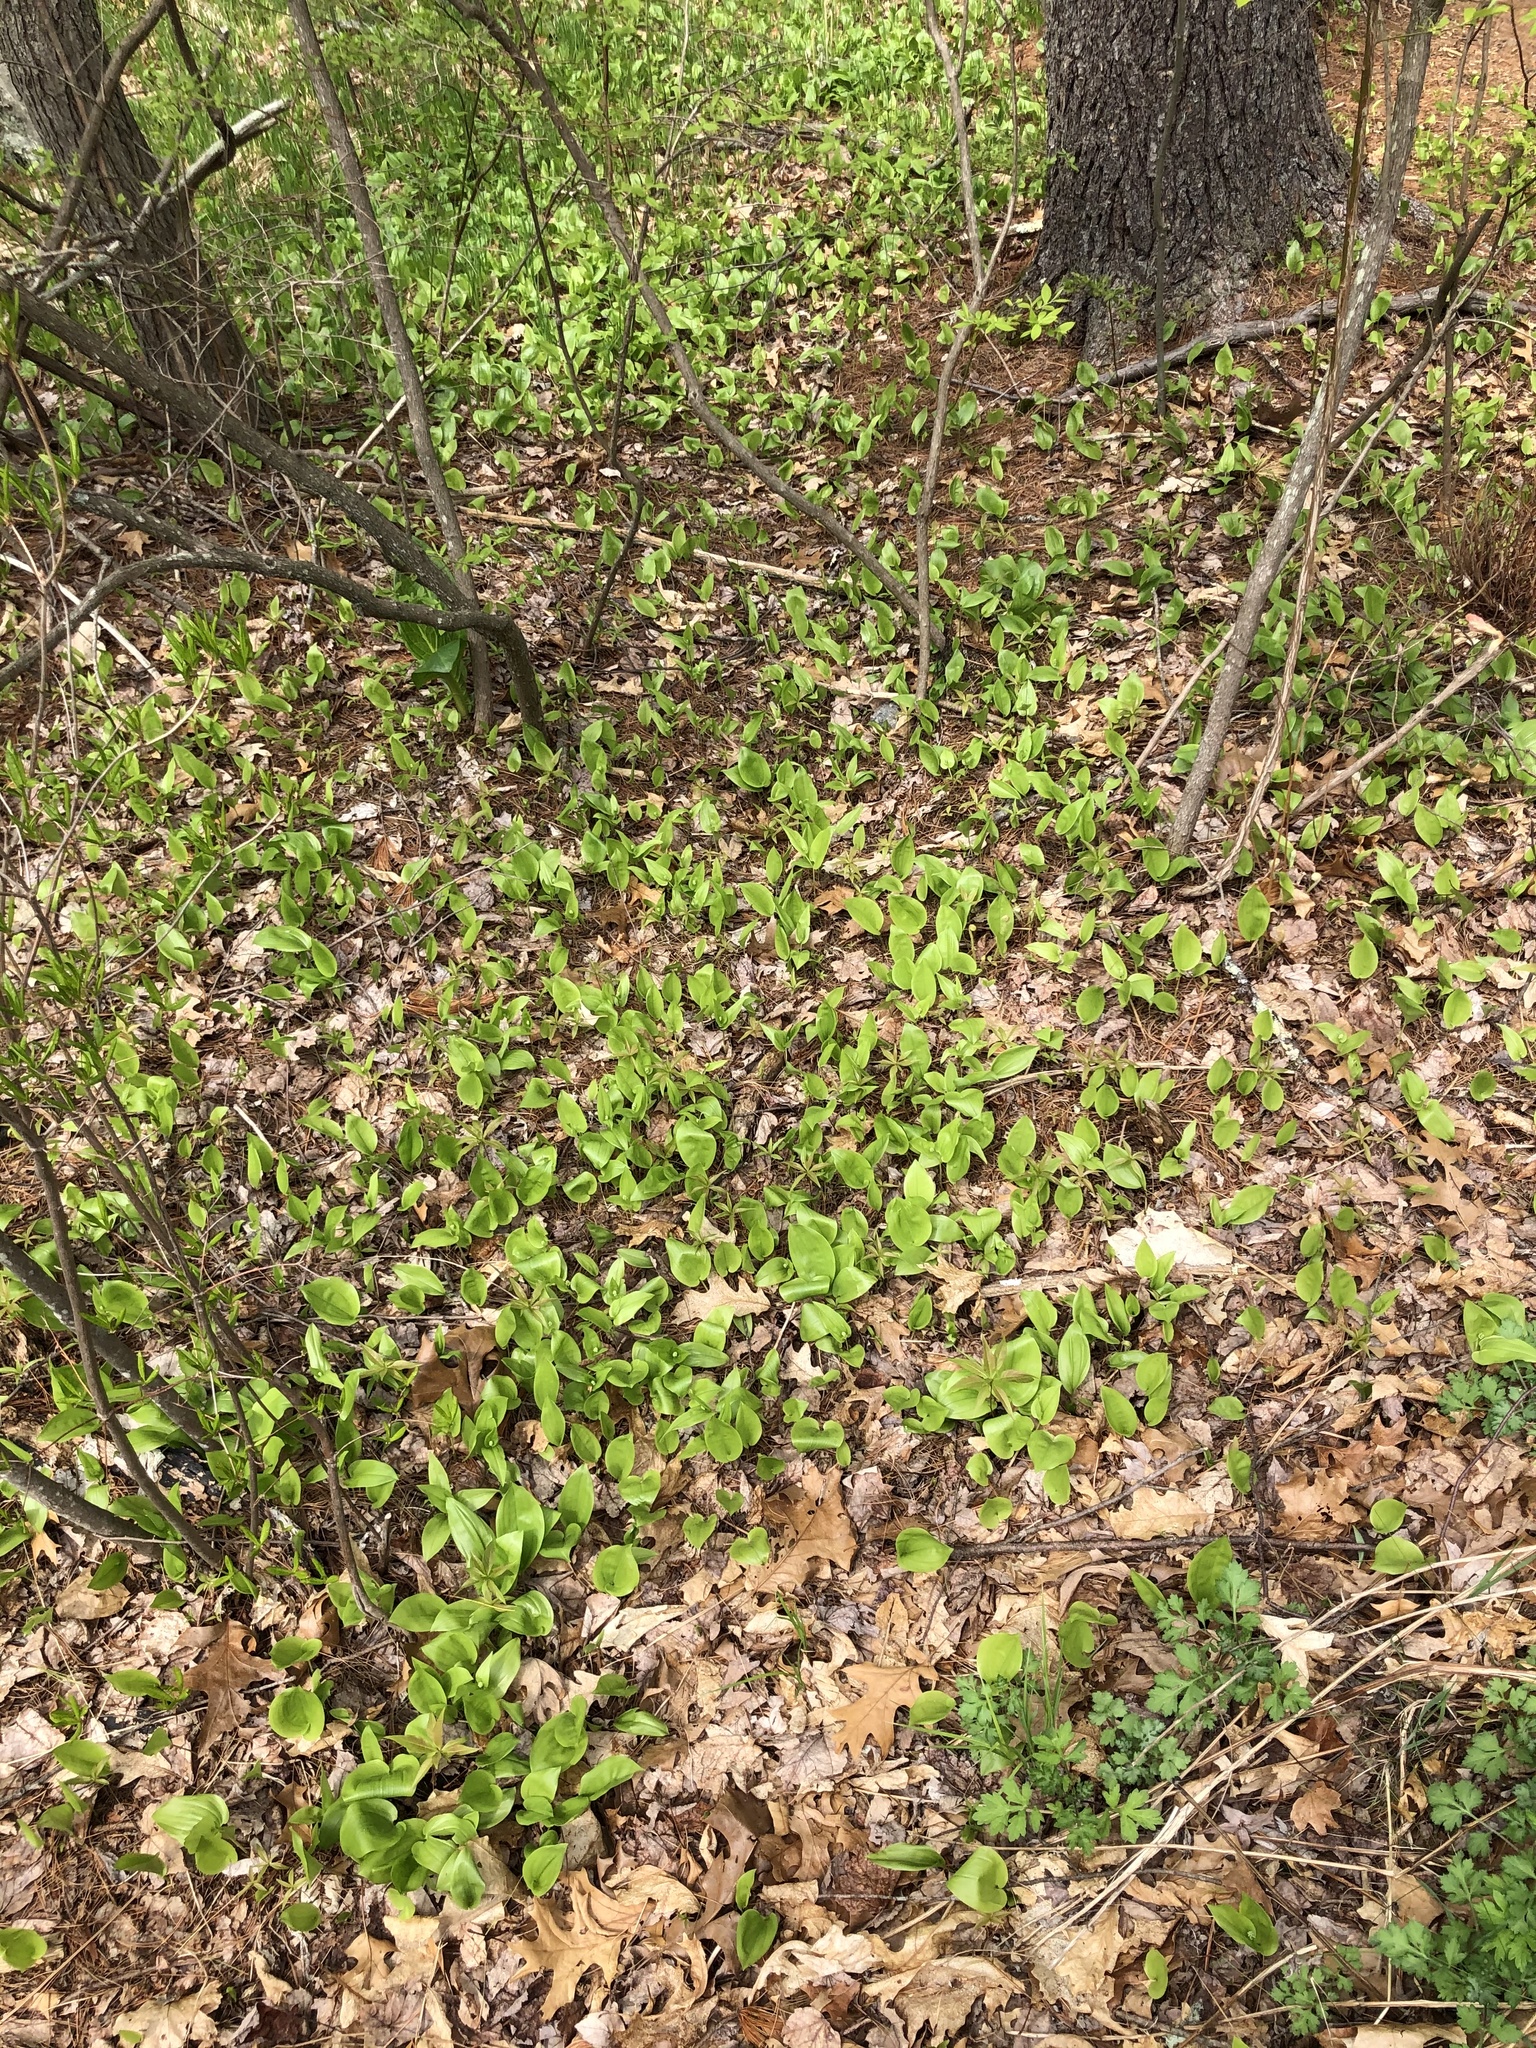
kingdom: Plantae
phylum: Tracheophyta
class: Liliopsida
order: Asparagales
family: Asparagaceae
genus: Maianthemum
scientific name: Maianthemum canadense
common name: False lily-of-the-valley
